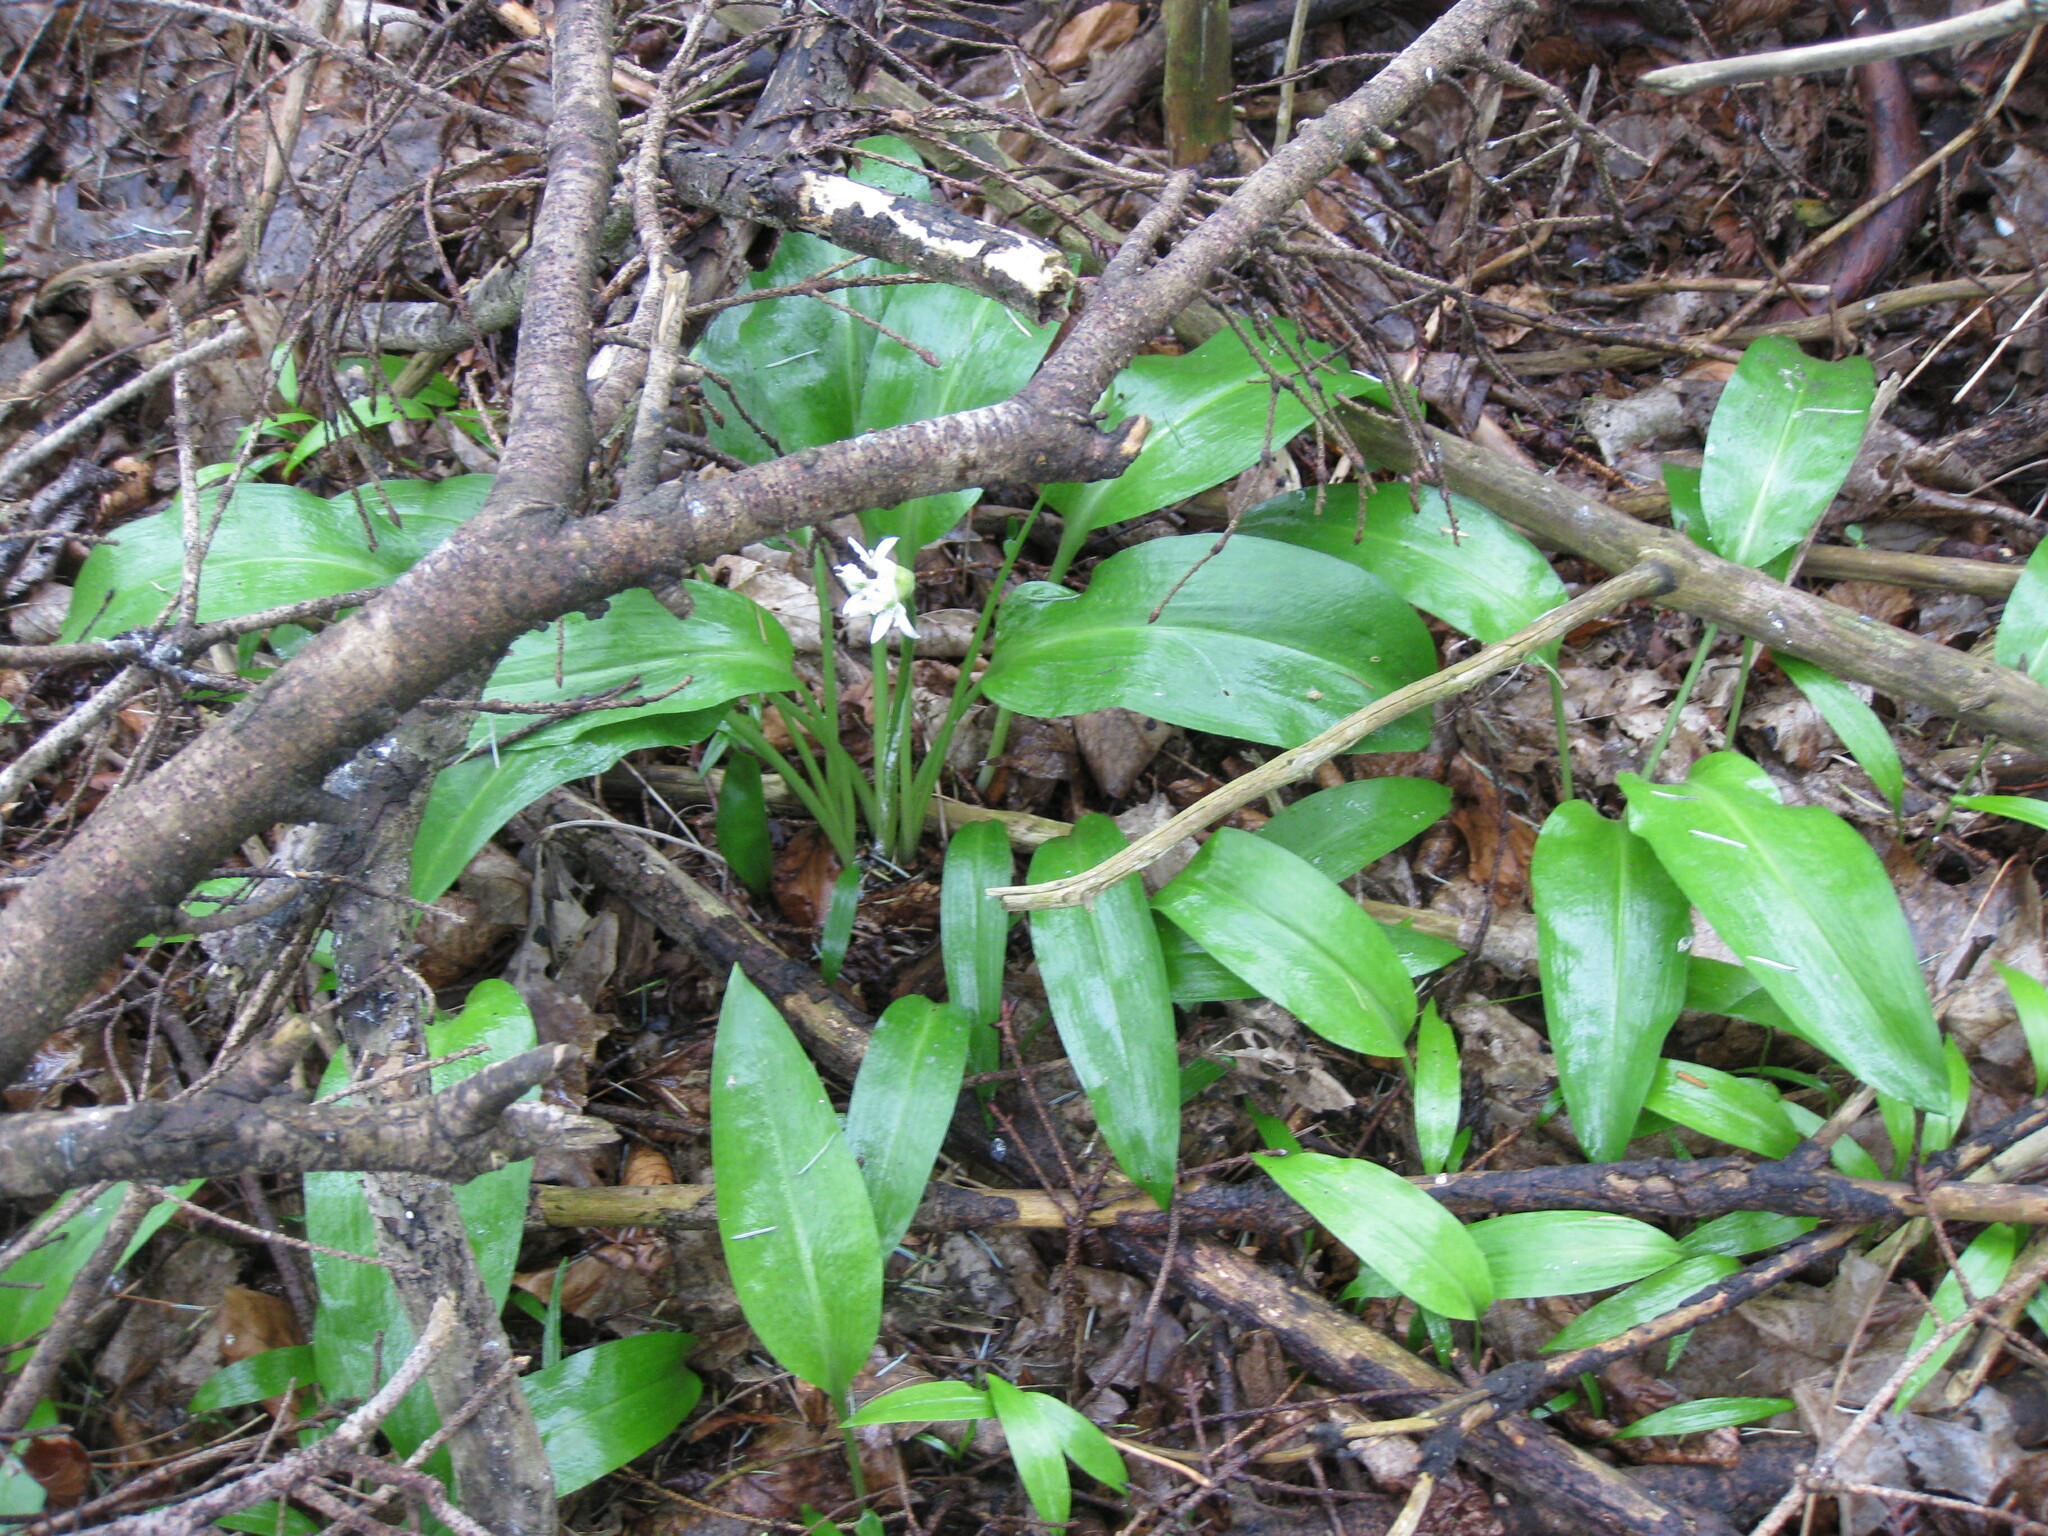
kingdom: Plantae
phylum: Tracheophyta
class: Liliopsida
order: Asparagales
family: Amaryllidaceae
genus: Allium
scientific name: Allium ursinum
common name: Ramsons
